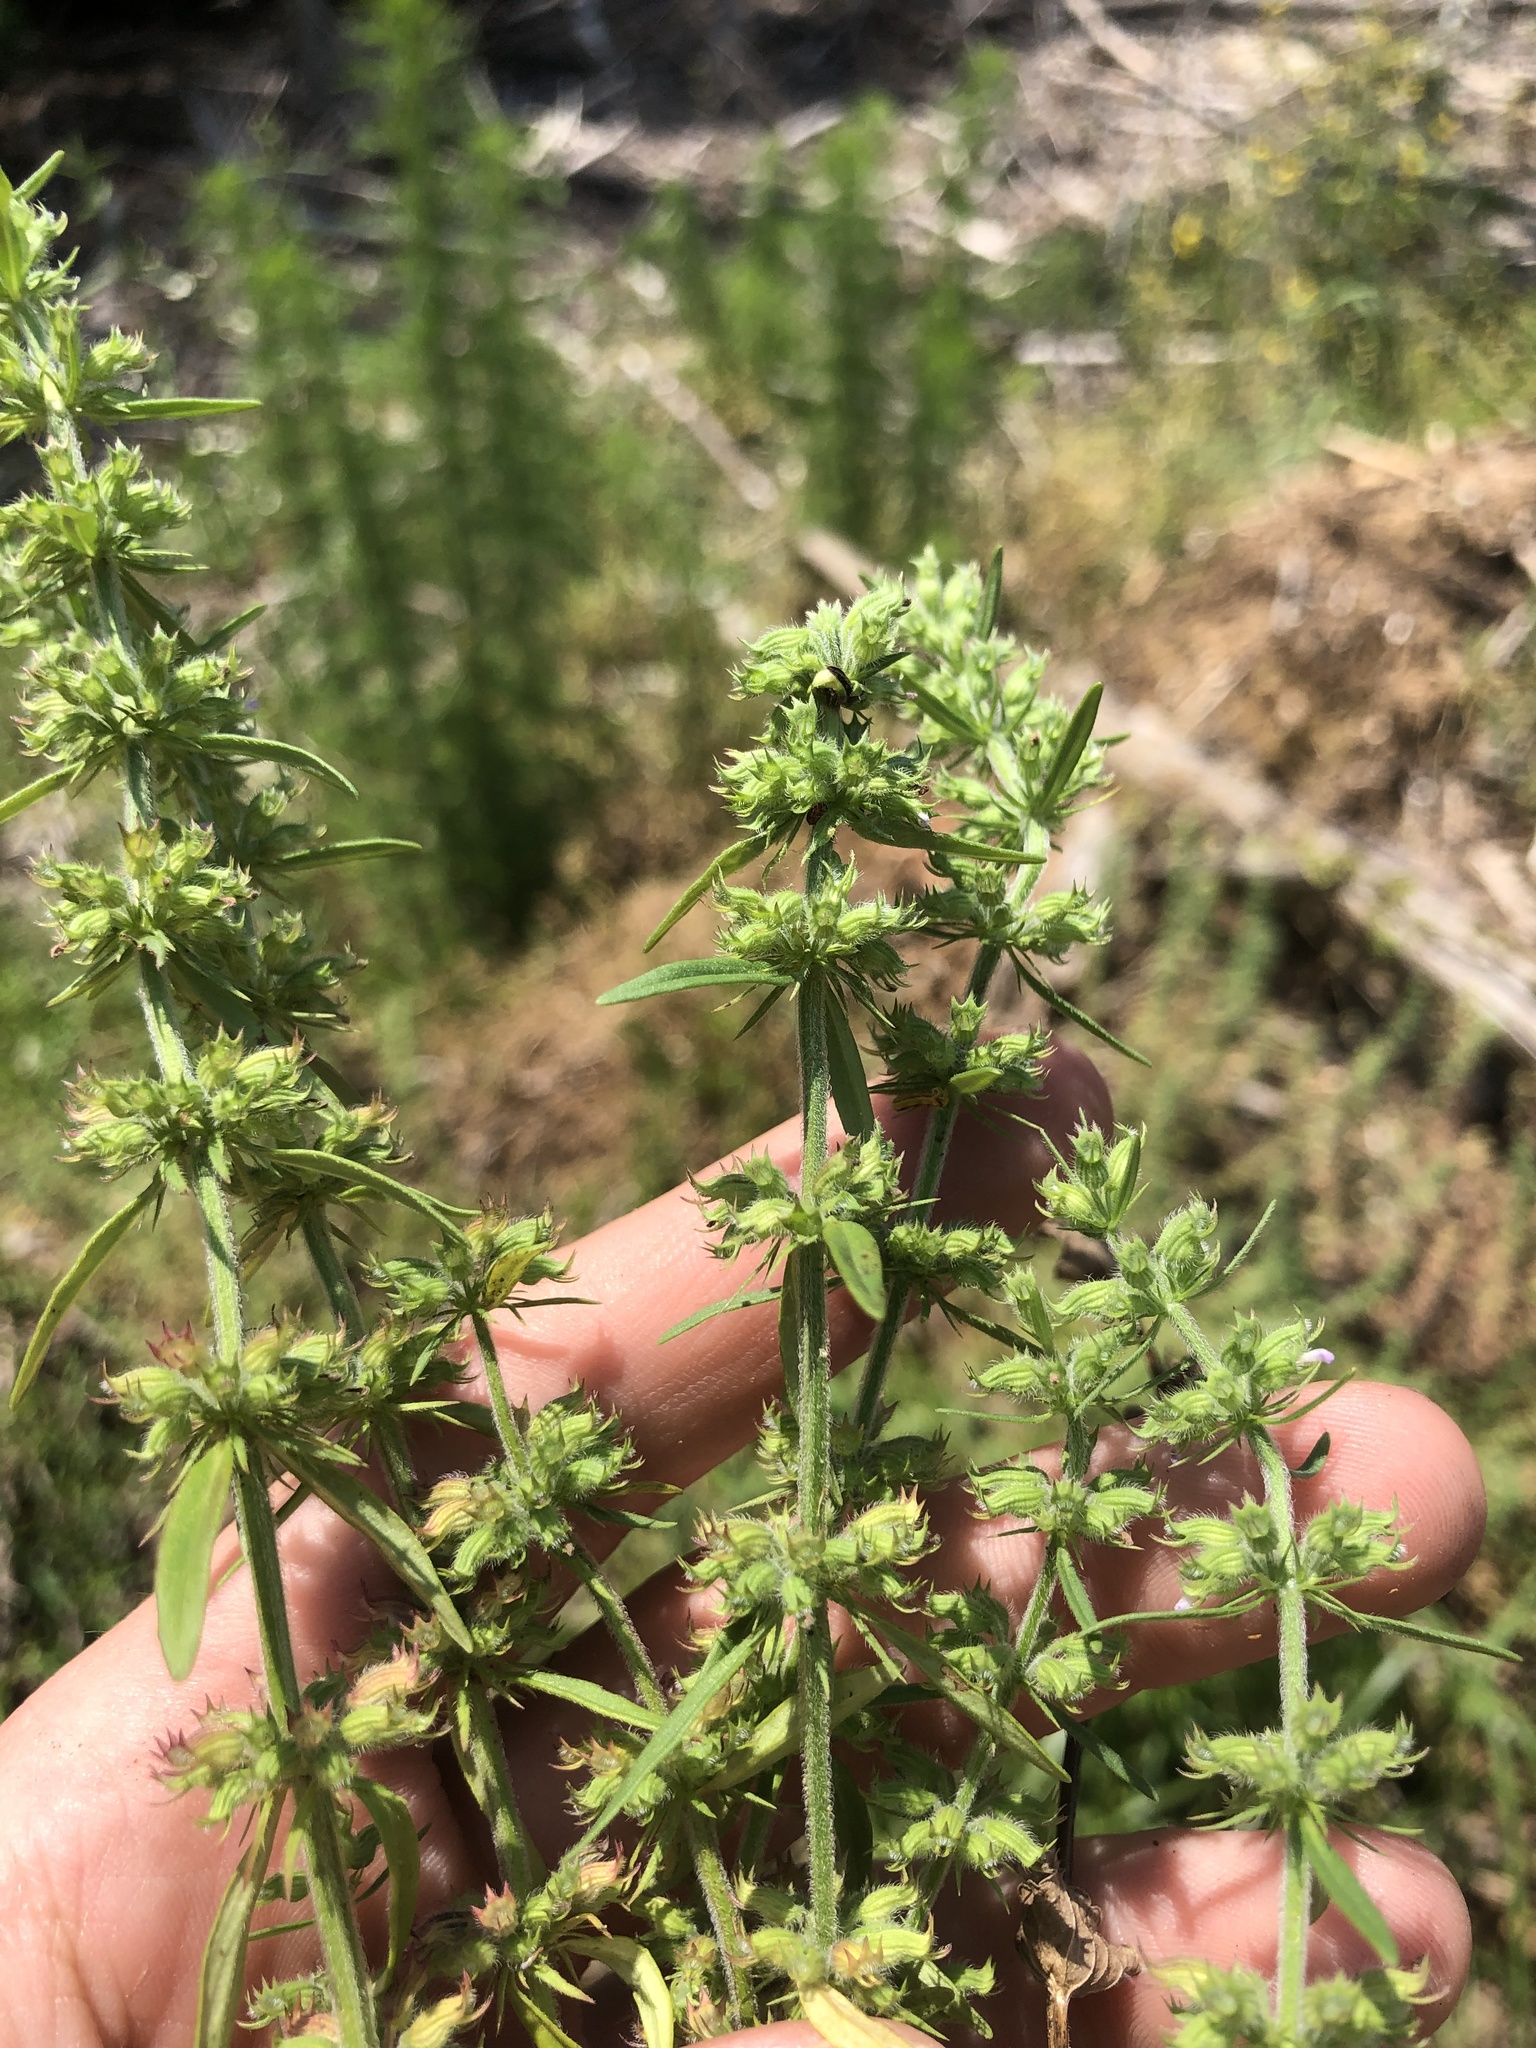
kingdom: Plantae
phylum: Tracheophyta
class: Magnoliopsida
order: Lamiales
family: Lamiaceae
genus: Hedeoma
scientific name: Hedeoma hispida
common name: Mock pennyroyal
